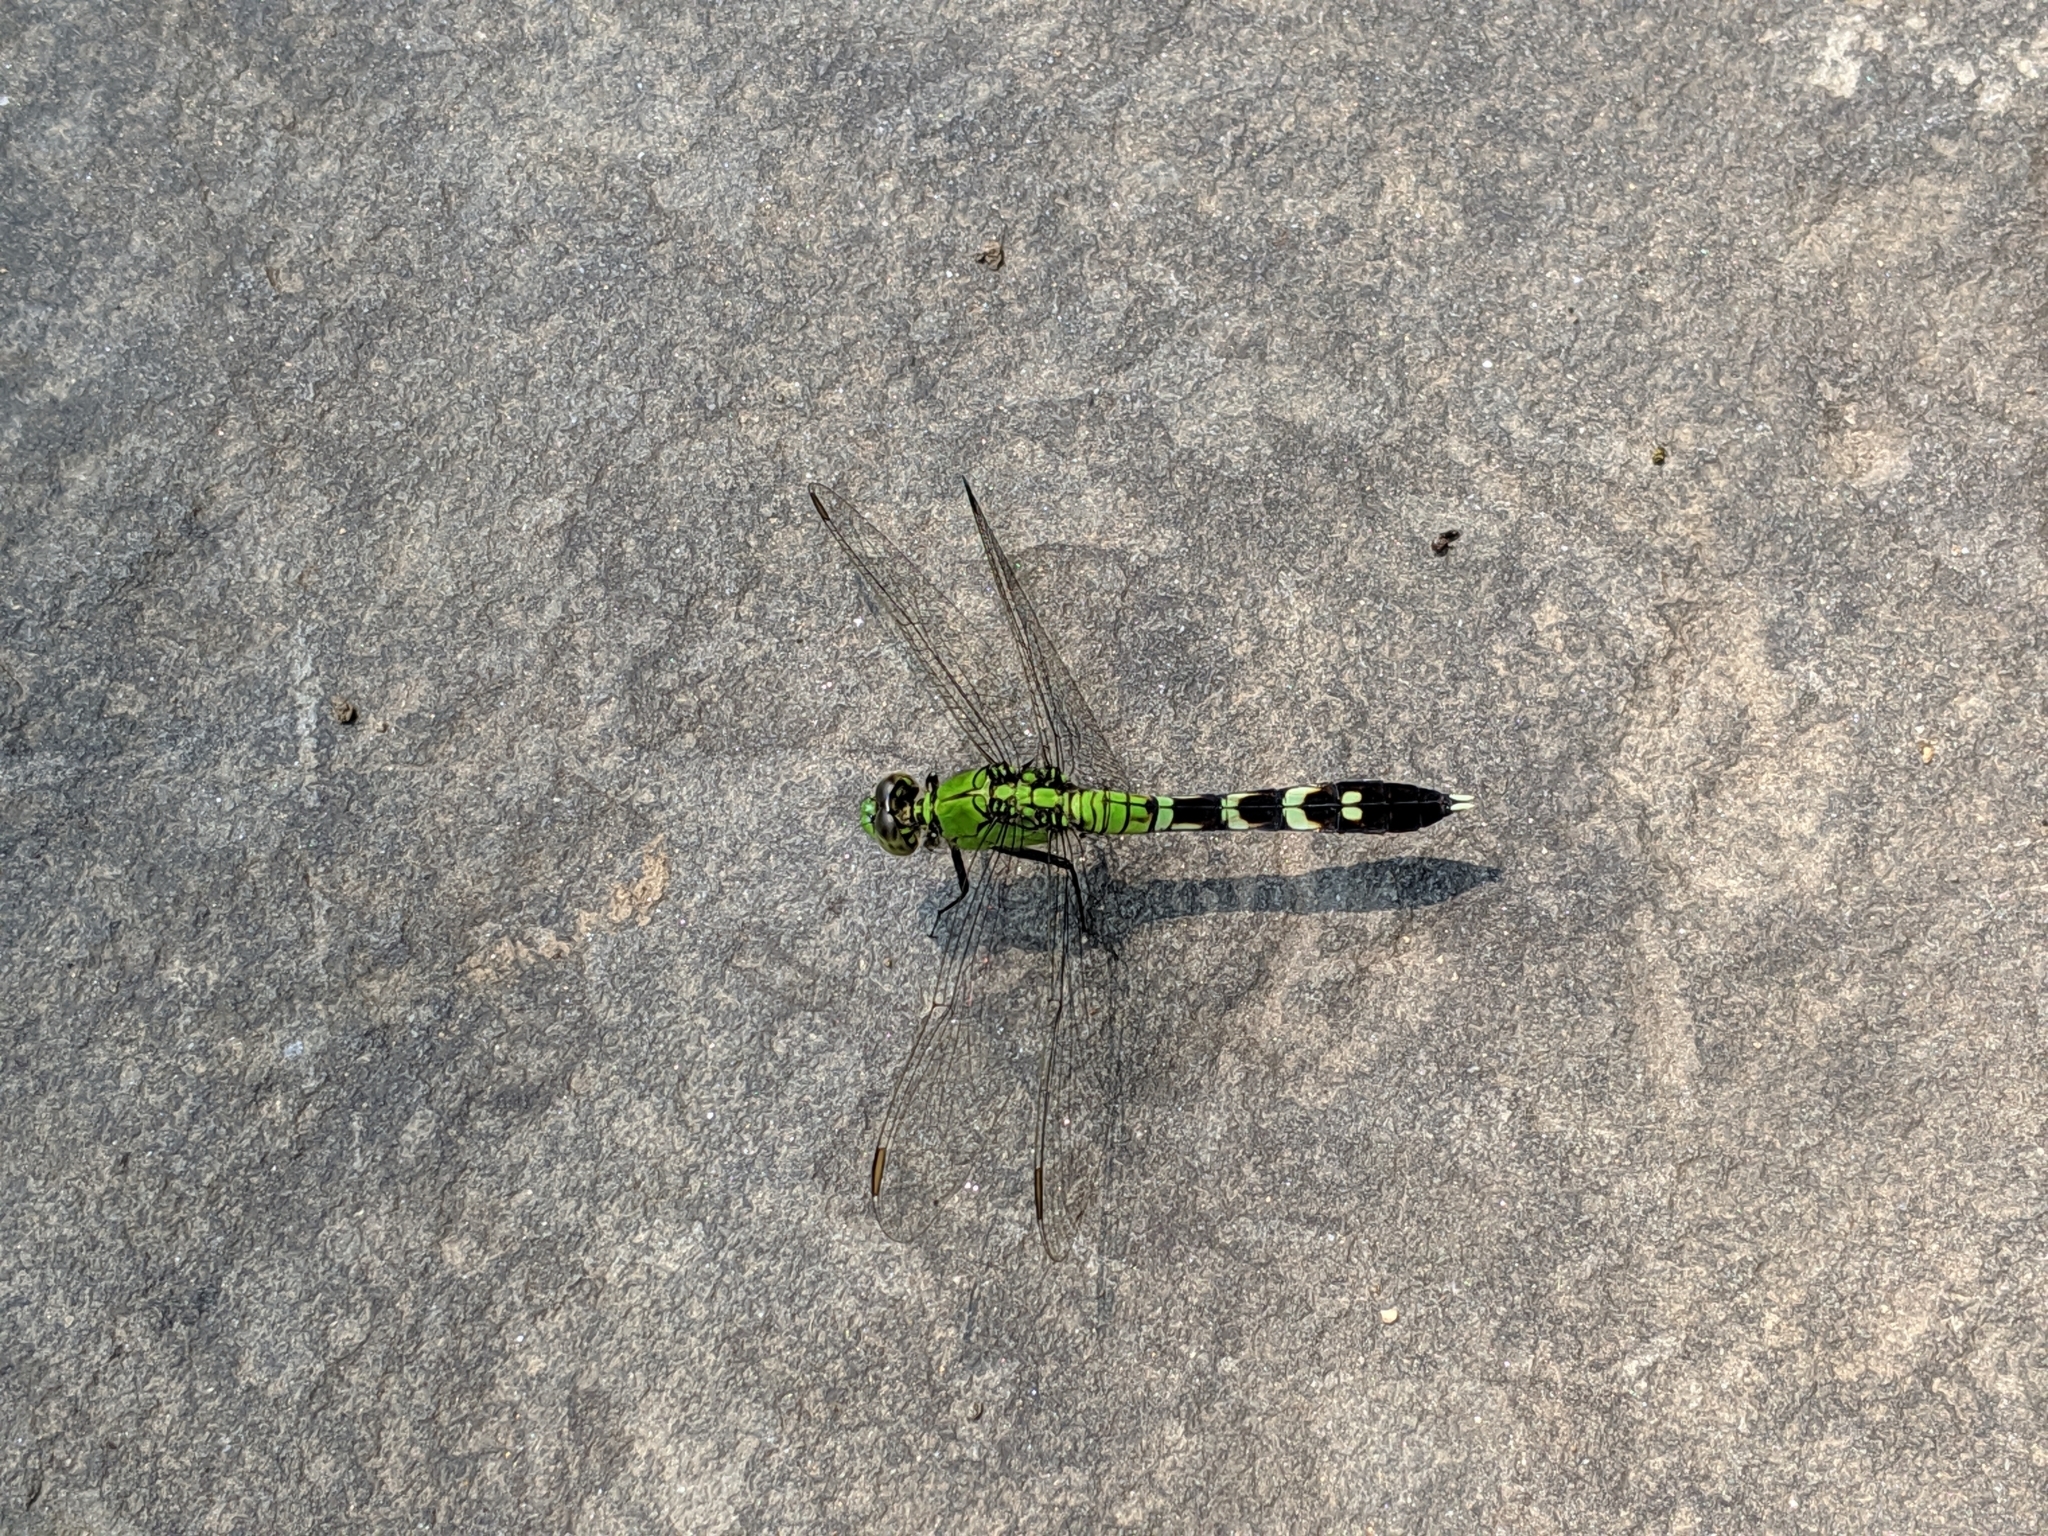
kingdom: Animalia
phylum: Arthropoda
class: Insecta
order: Odonata
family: Libellulidae
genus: Erythemis
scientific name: Erythemis simplicicollis
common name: Eastern pondhawk
